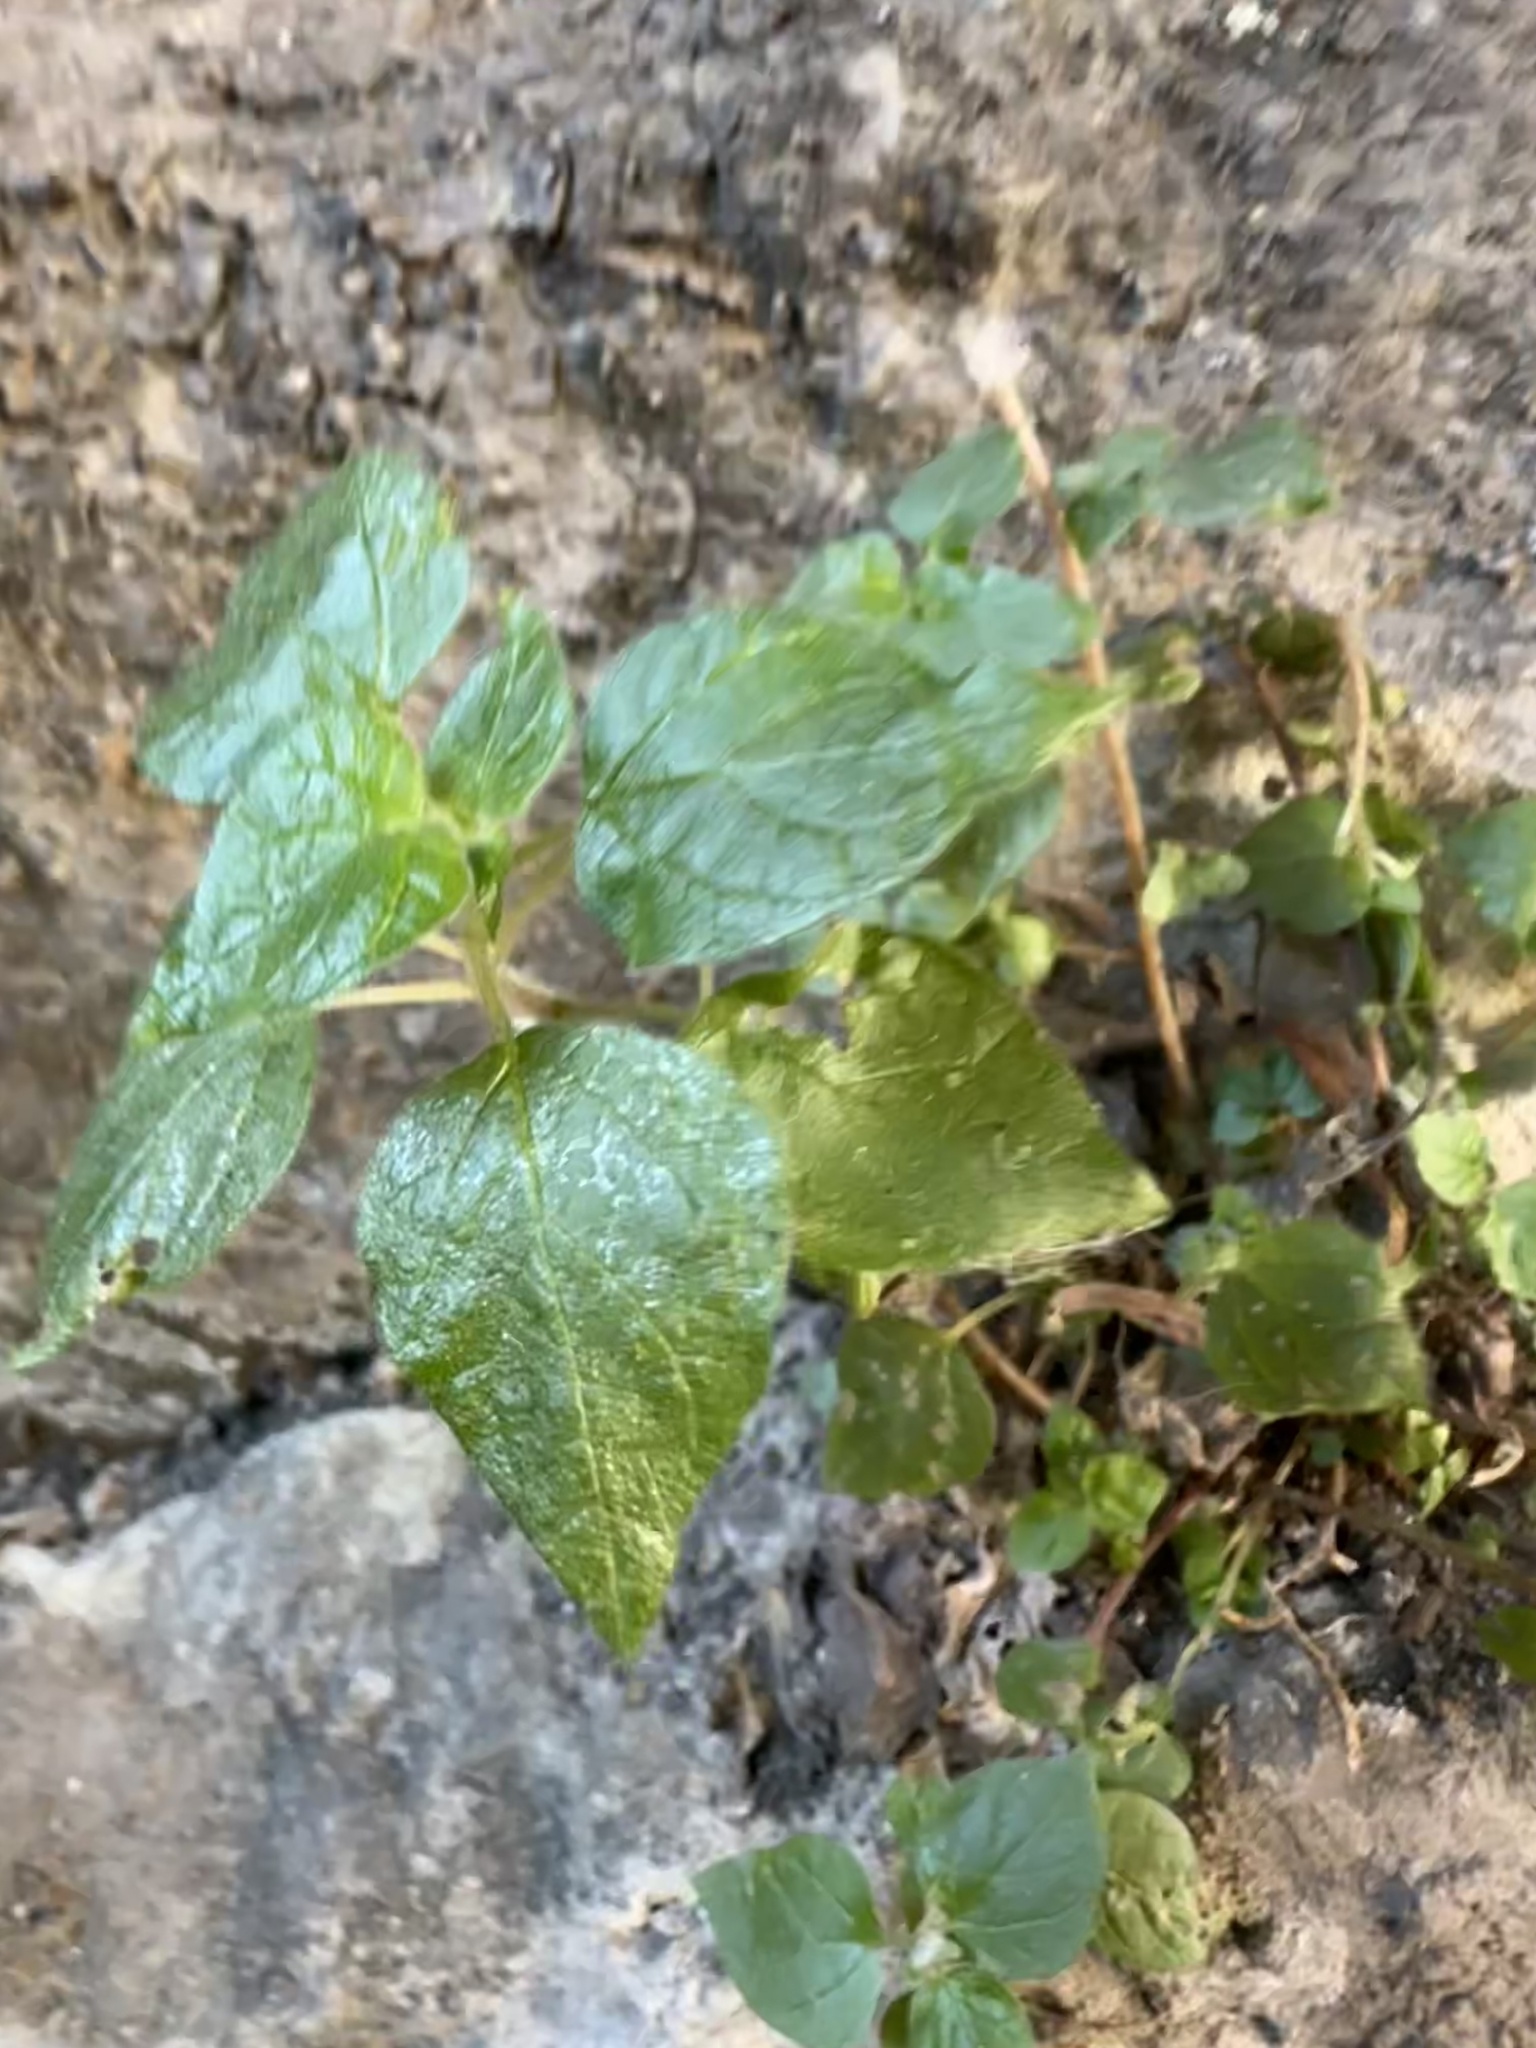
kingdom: Plantae
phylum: Tracheophyta
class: Magnoliopsida
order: Rosales
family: Urticaceae
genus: Parietaria
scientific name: Parietaria judaica
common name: Pellitory-of-the-wall
